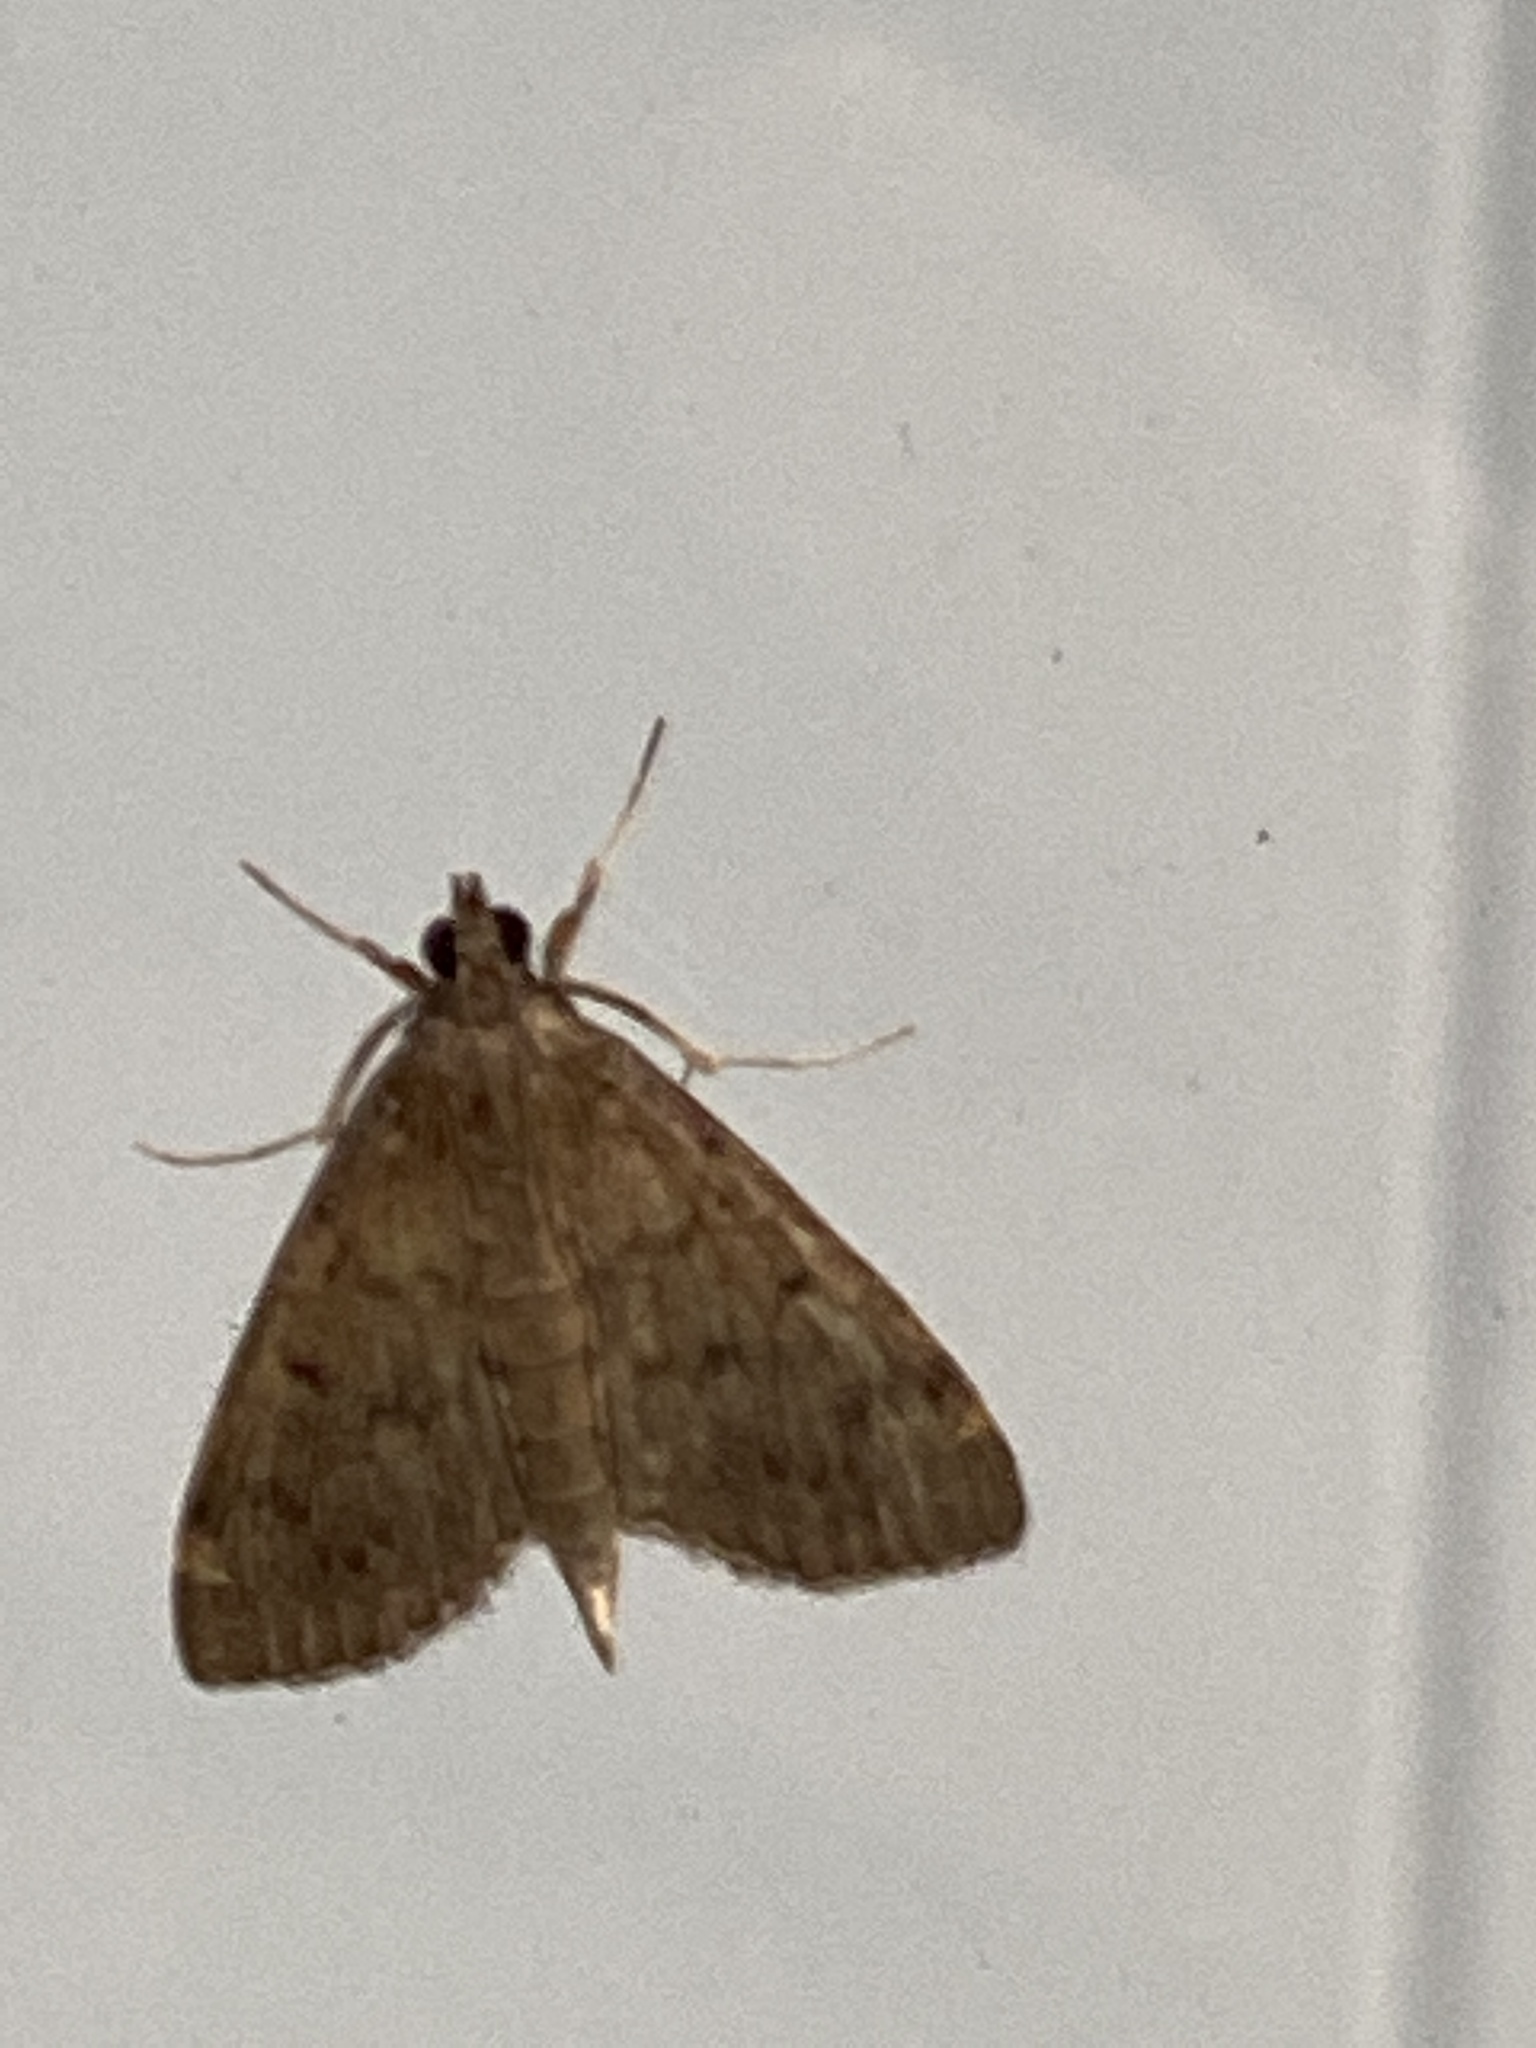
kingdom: Animalia
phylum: Arthropoda
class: Insecta
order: Lepidoptera
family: Crambidae
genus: Herpetogramma
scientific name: Herpetogramma licarsisalis
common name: Grass webworm
